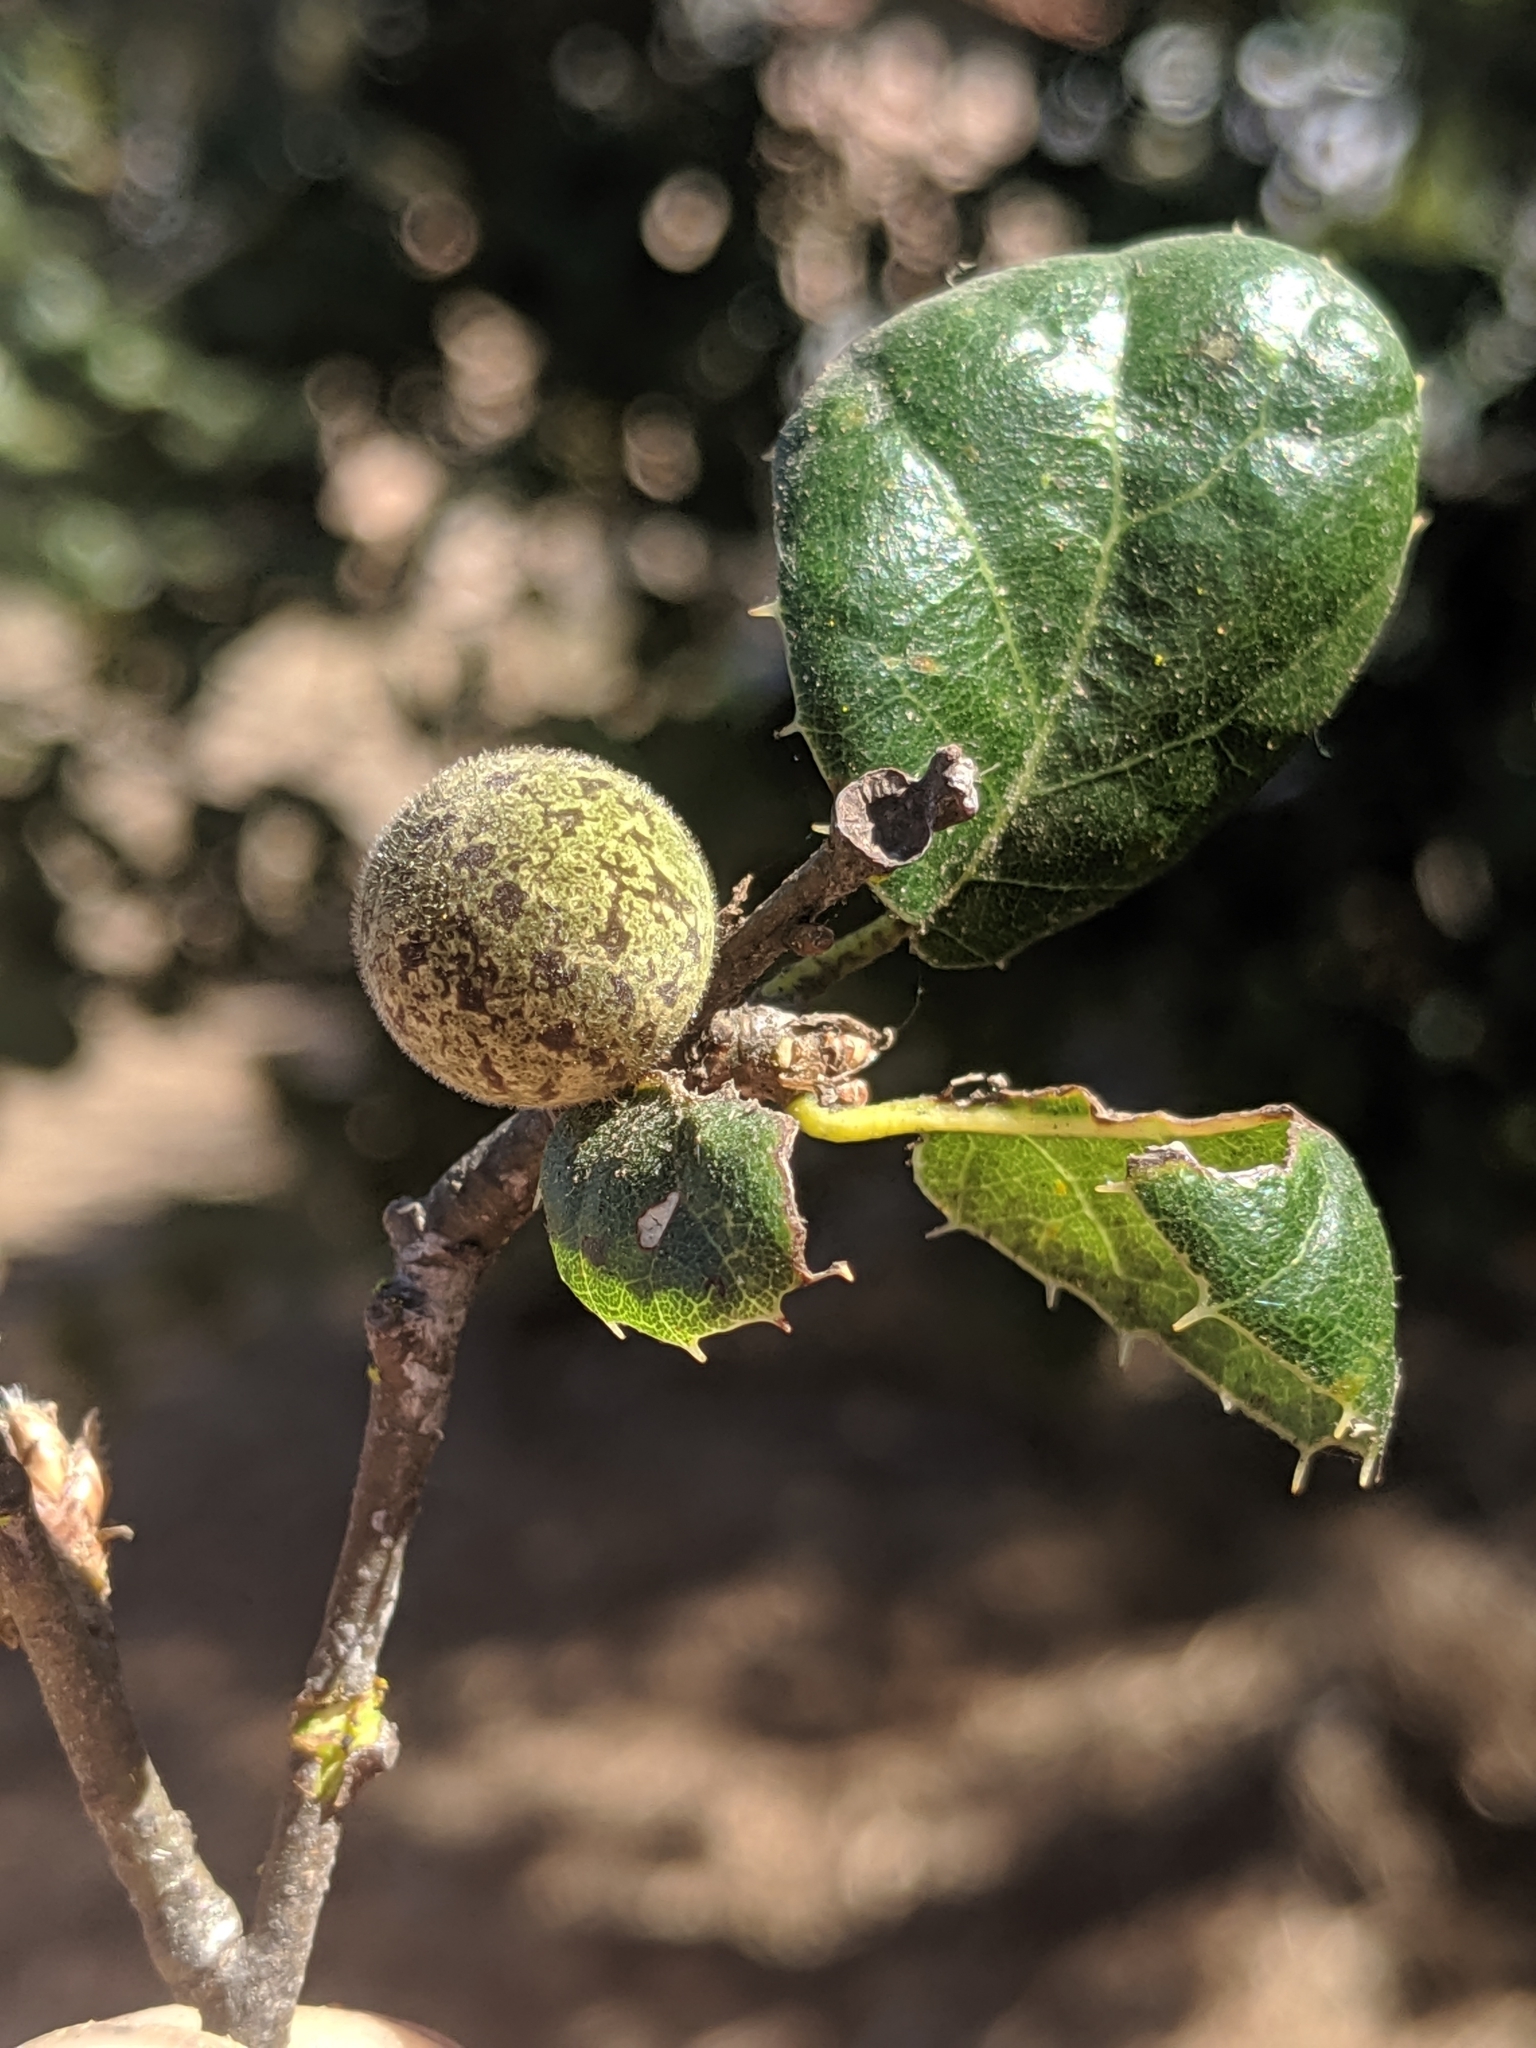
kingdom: Animalia
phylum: Arthropoda
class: Insecta
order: Hymenoptera
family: Cynipidae
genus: Callirhytis
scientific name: Callirhytis
